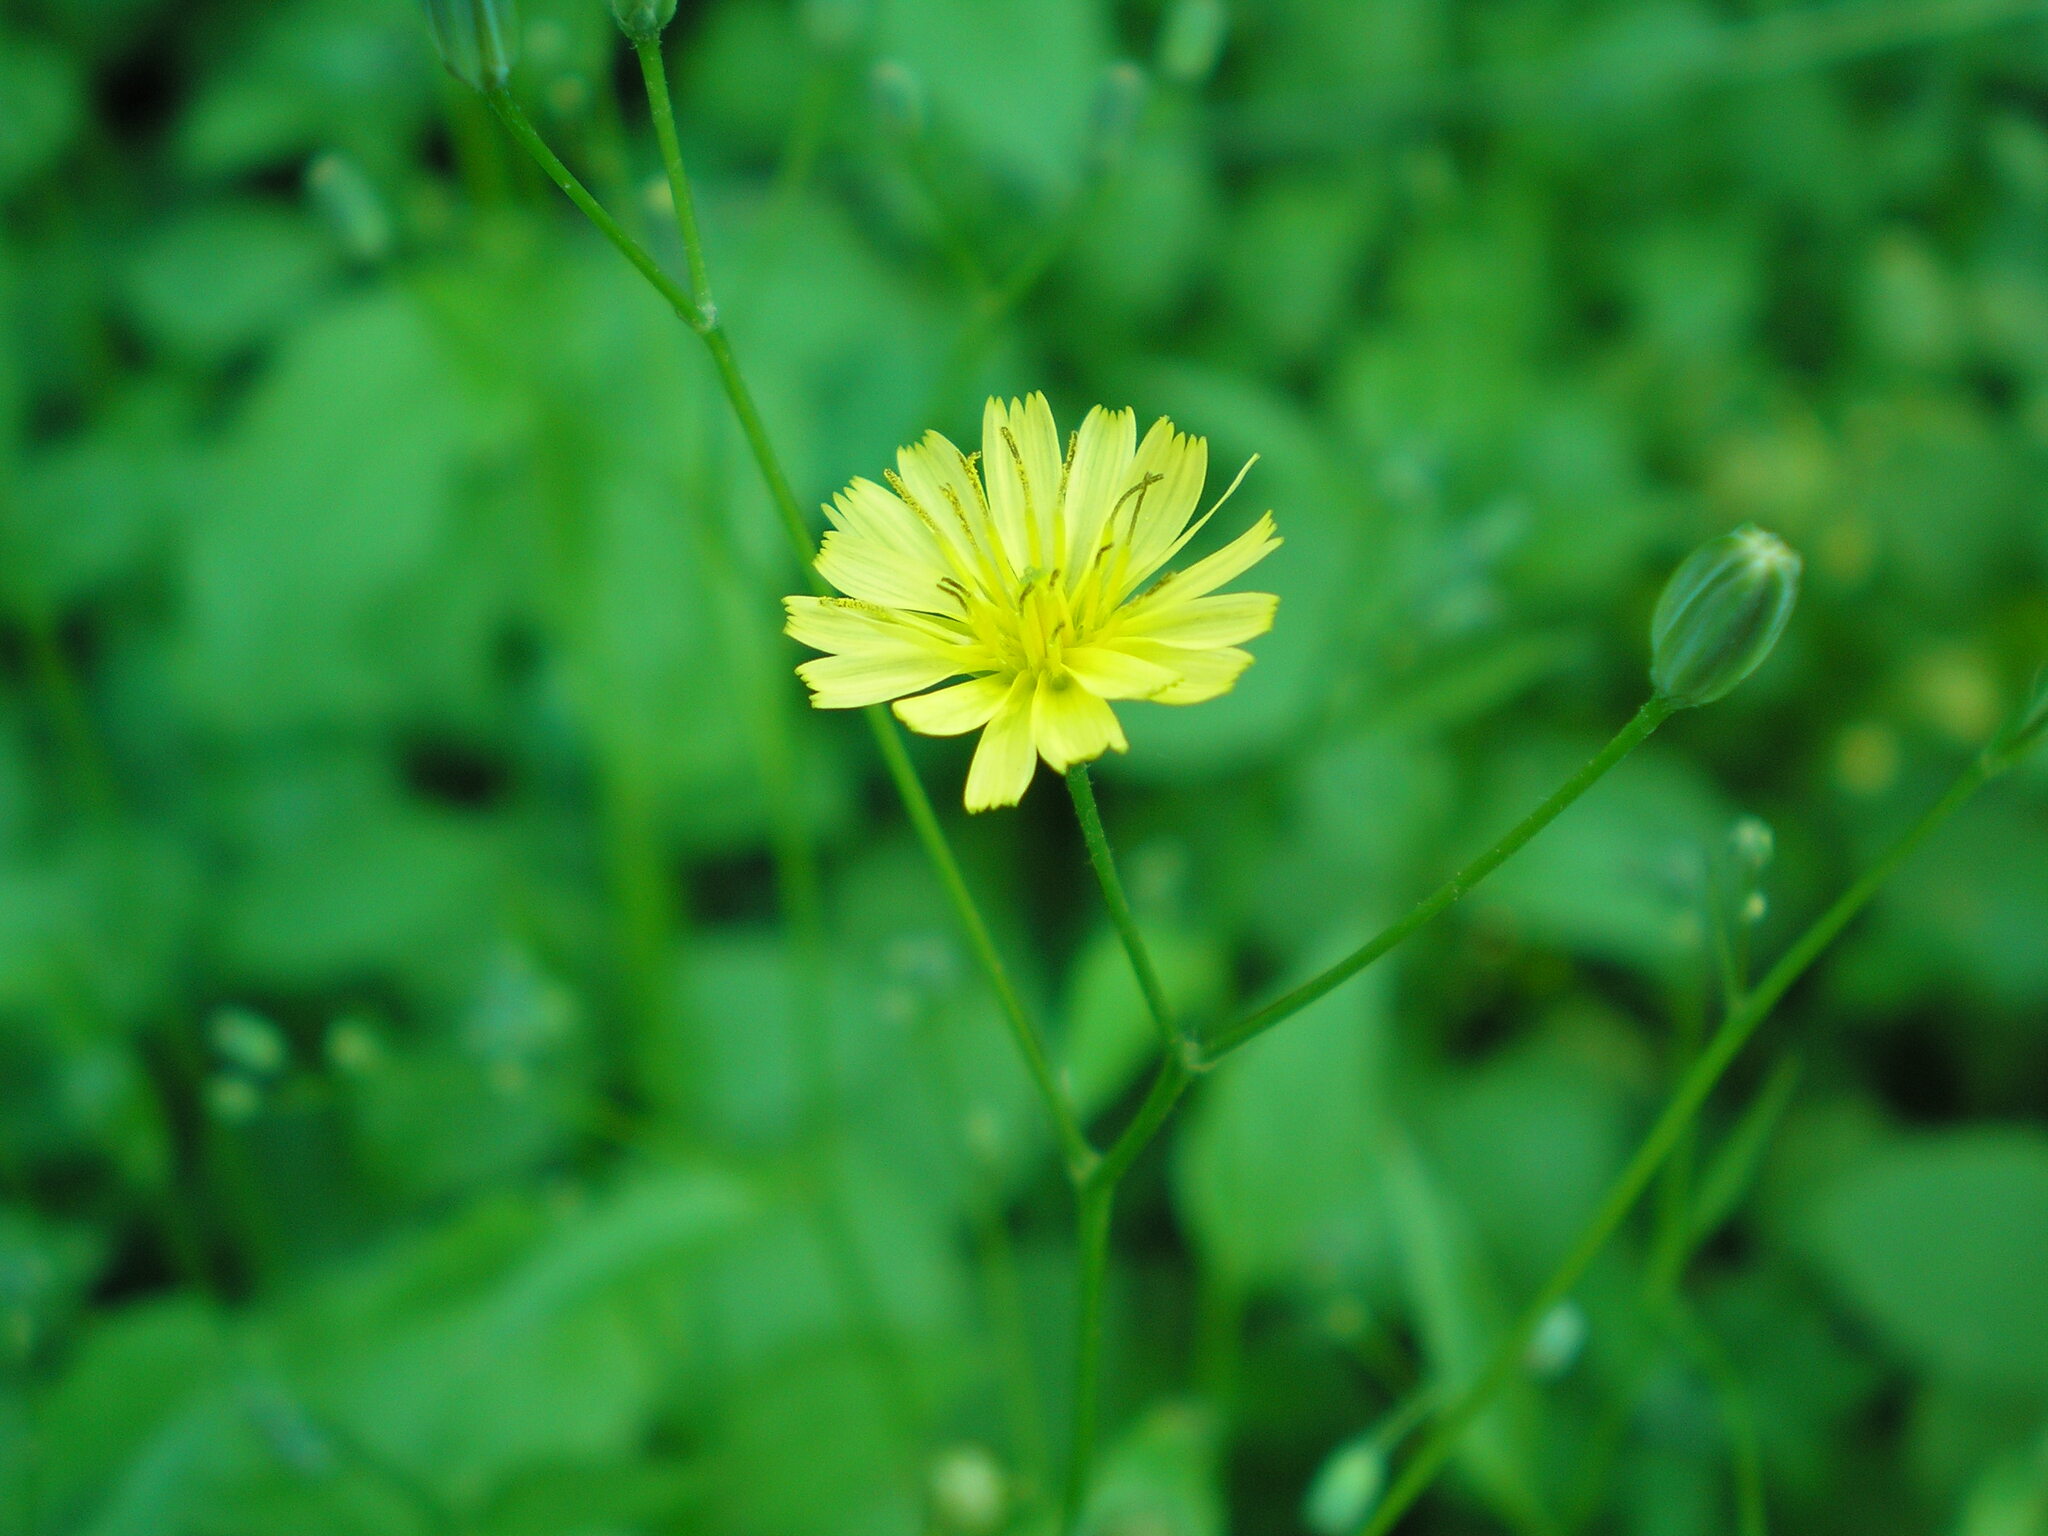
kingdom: Plantae
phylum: Tracheophyta
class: Magnoliopsida
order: Asterales
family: Asteraceae
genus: Lapsana
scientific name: Lapsana communis
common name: Nipplewort
